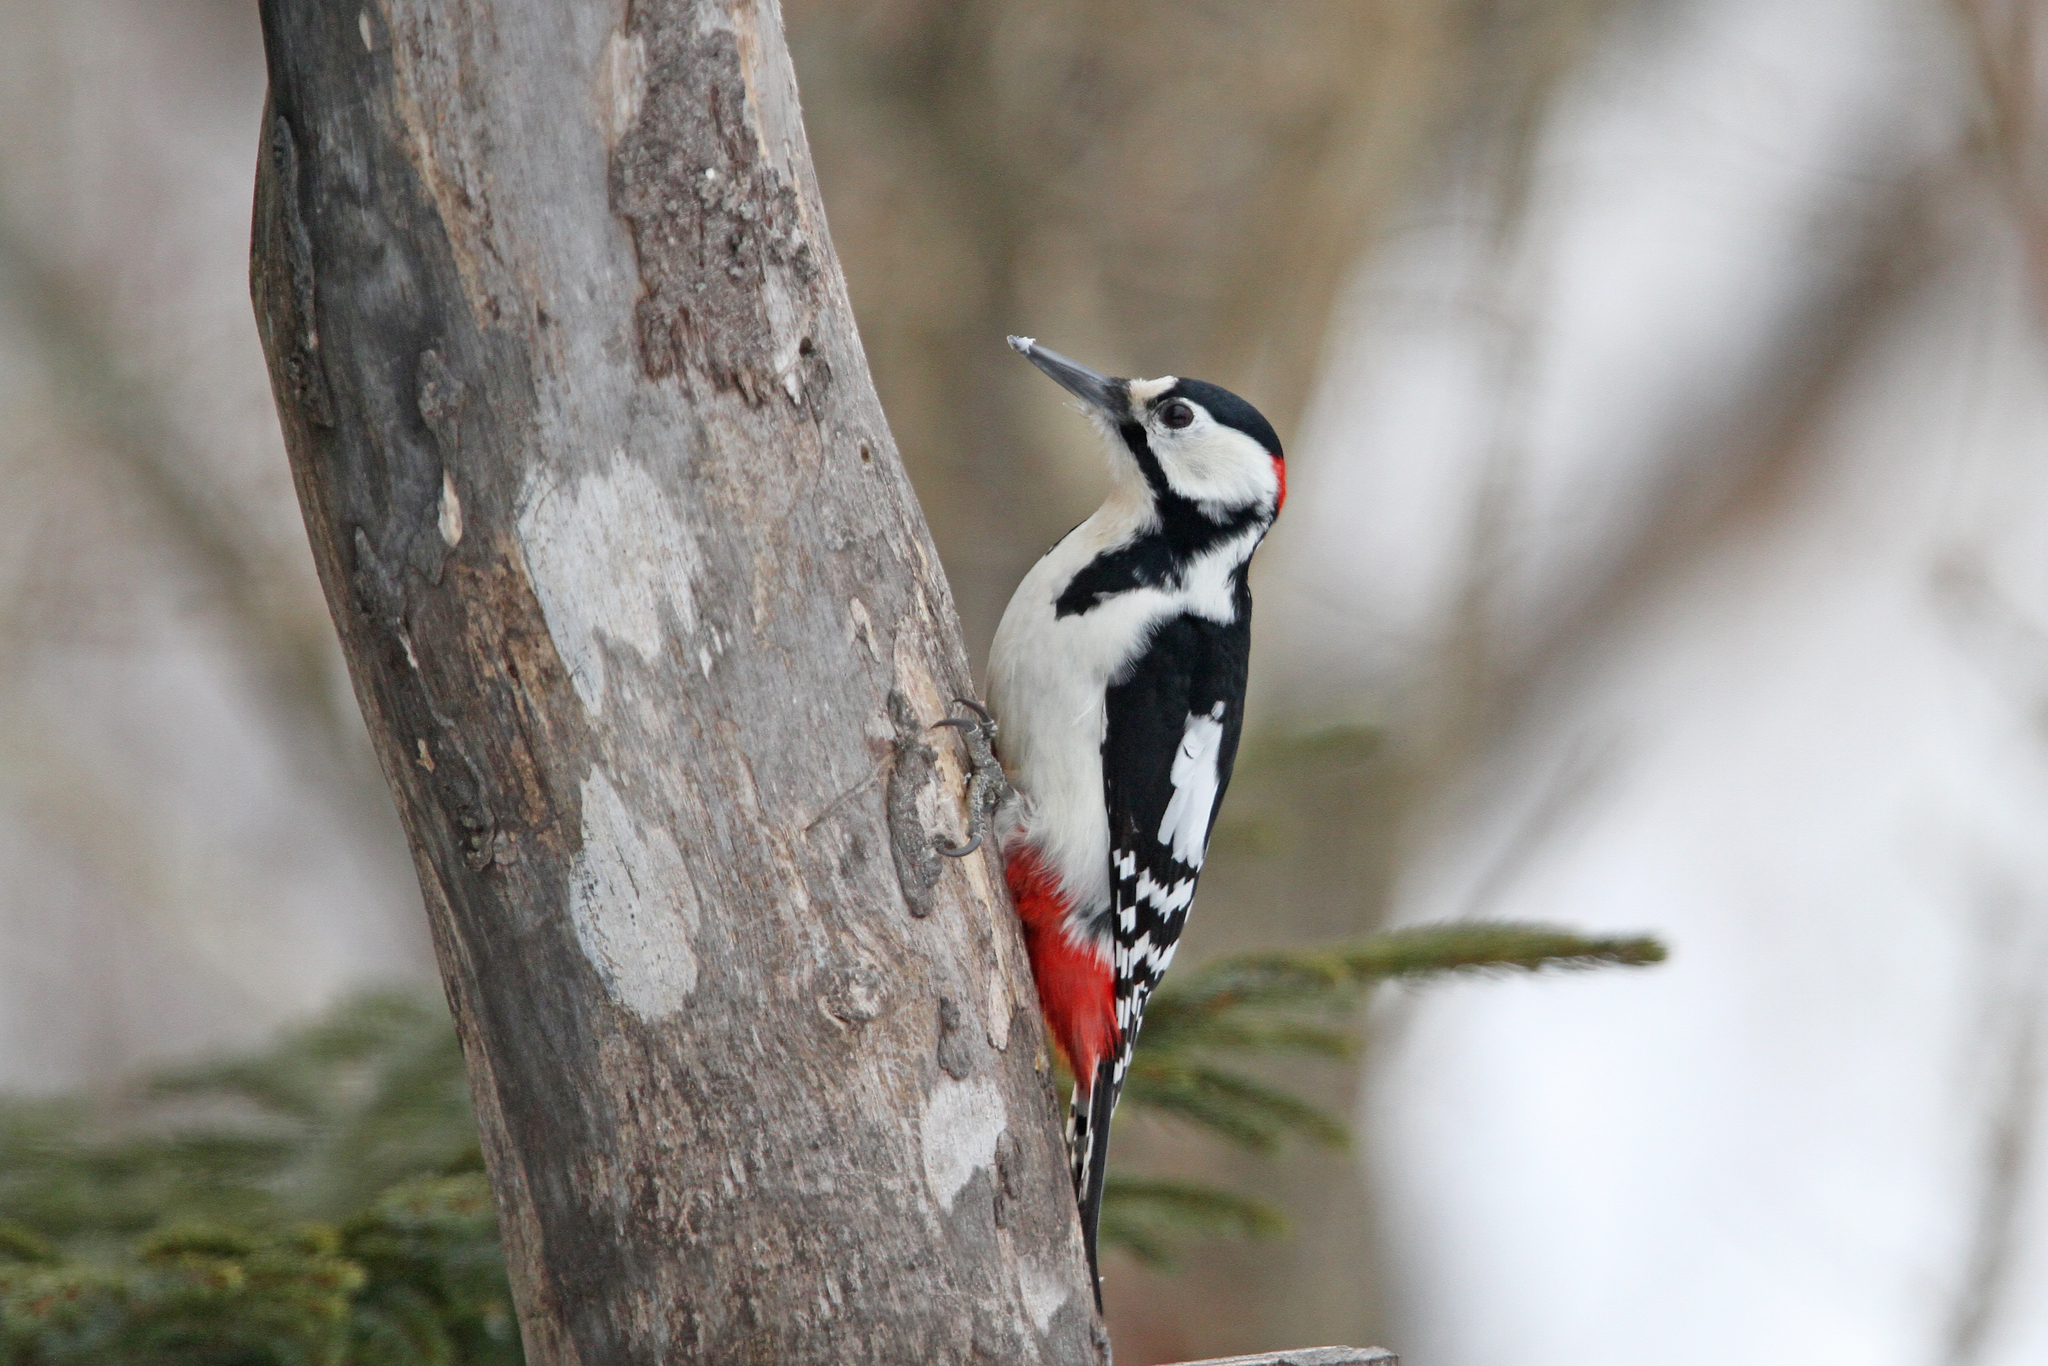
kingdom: Animalia
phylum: Chordata
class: Aves
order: Piciformes
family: Picidae
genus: Dendrocopos
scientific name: Dendrocopos major
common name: Great spotted woodpecker
